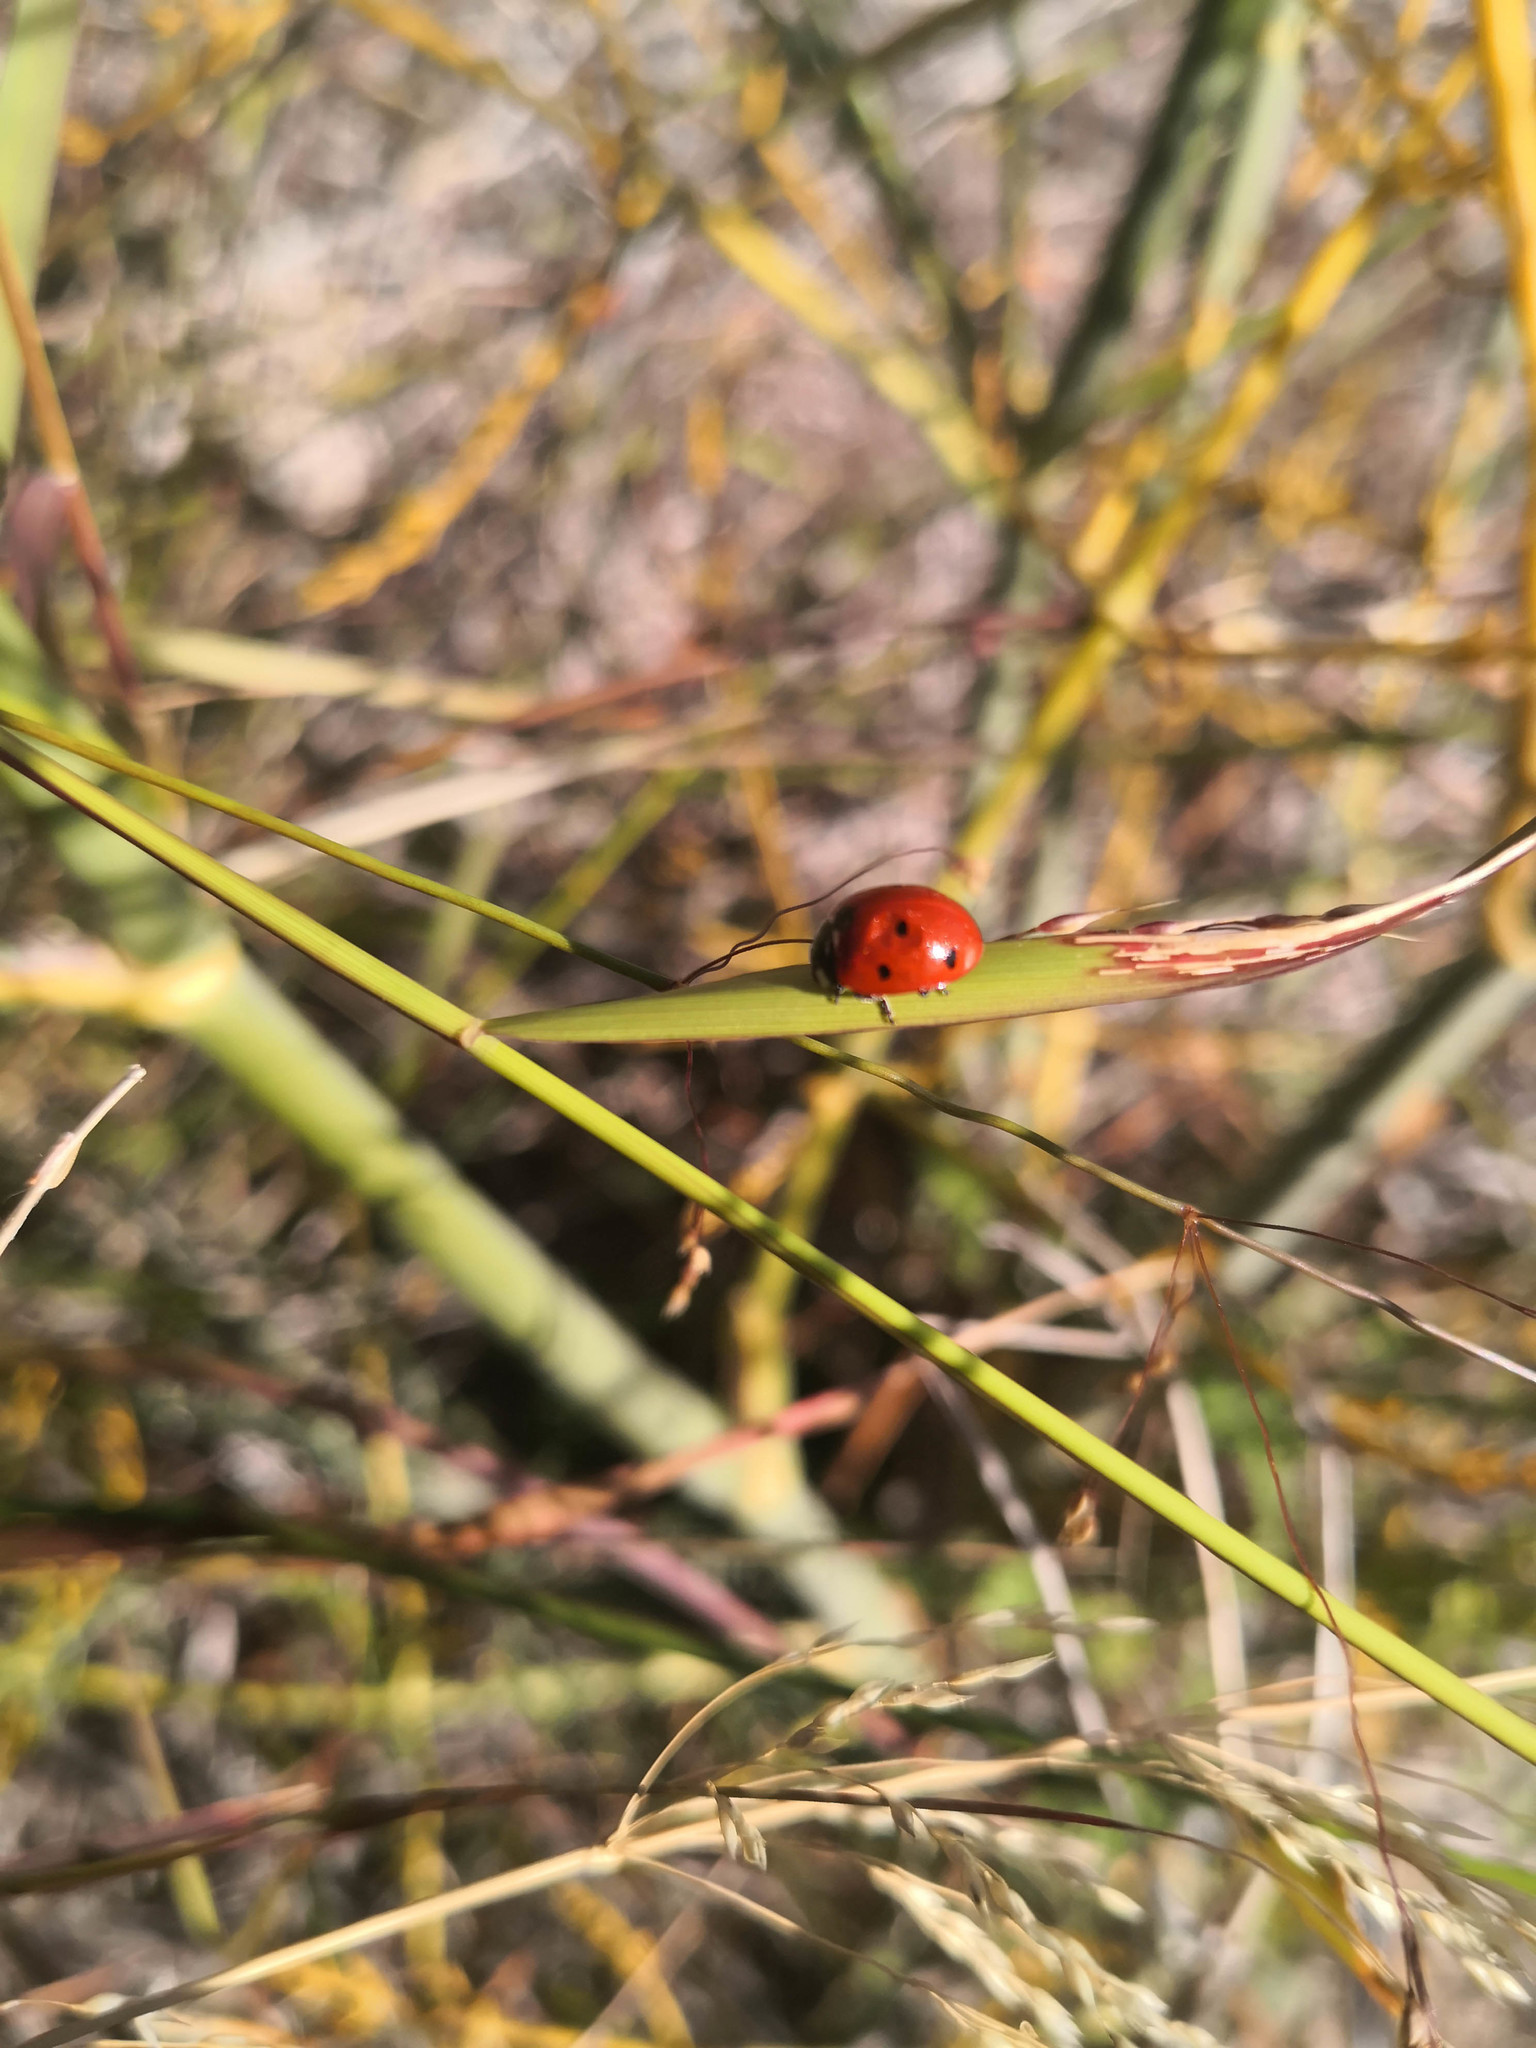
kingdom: Animalia
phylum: Arthropoda
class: Insecta
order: Coleoptera
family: Coccinellidae
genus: Coccinella
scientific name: Coccinella septempunctata
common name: Sevenspotted lady beetle
